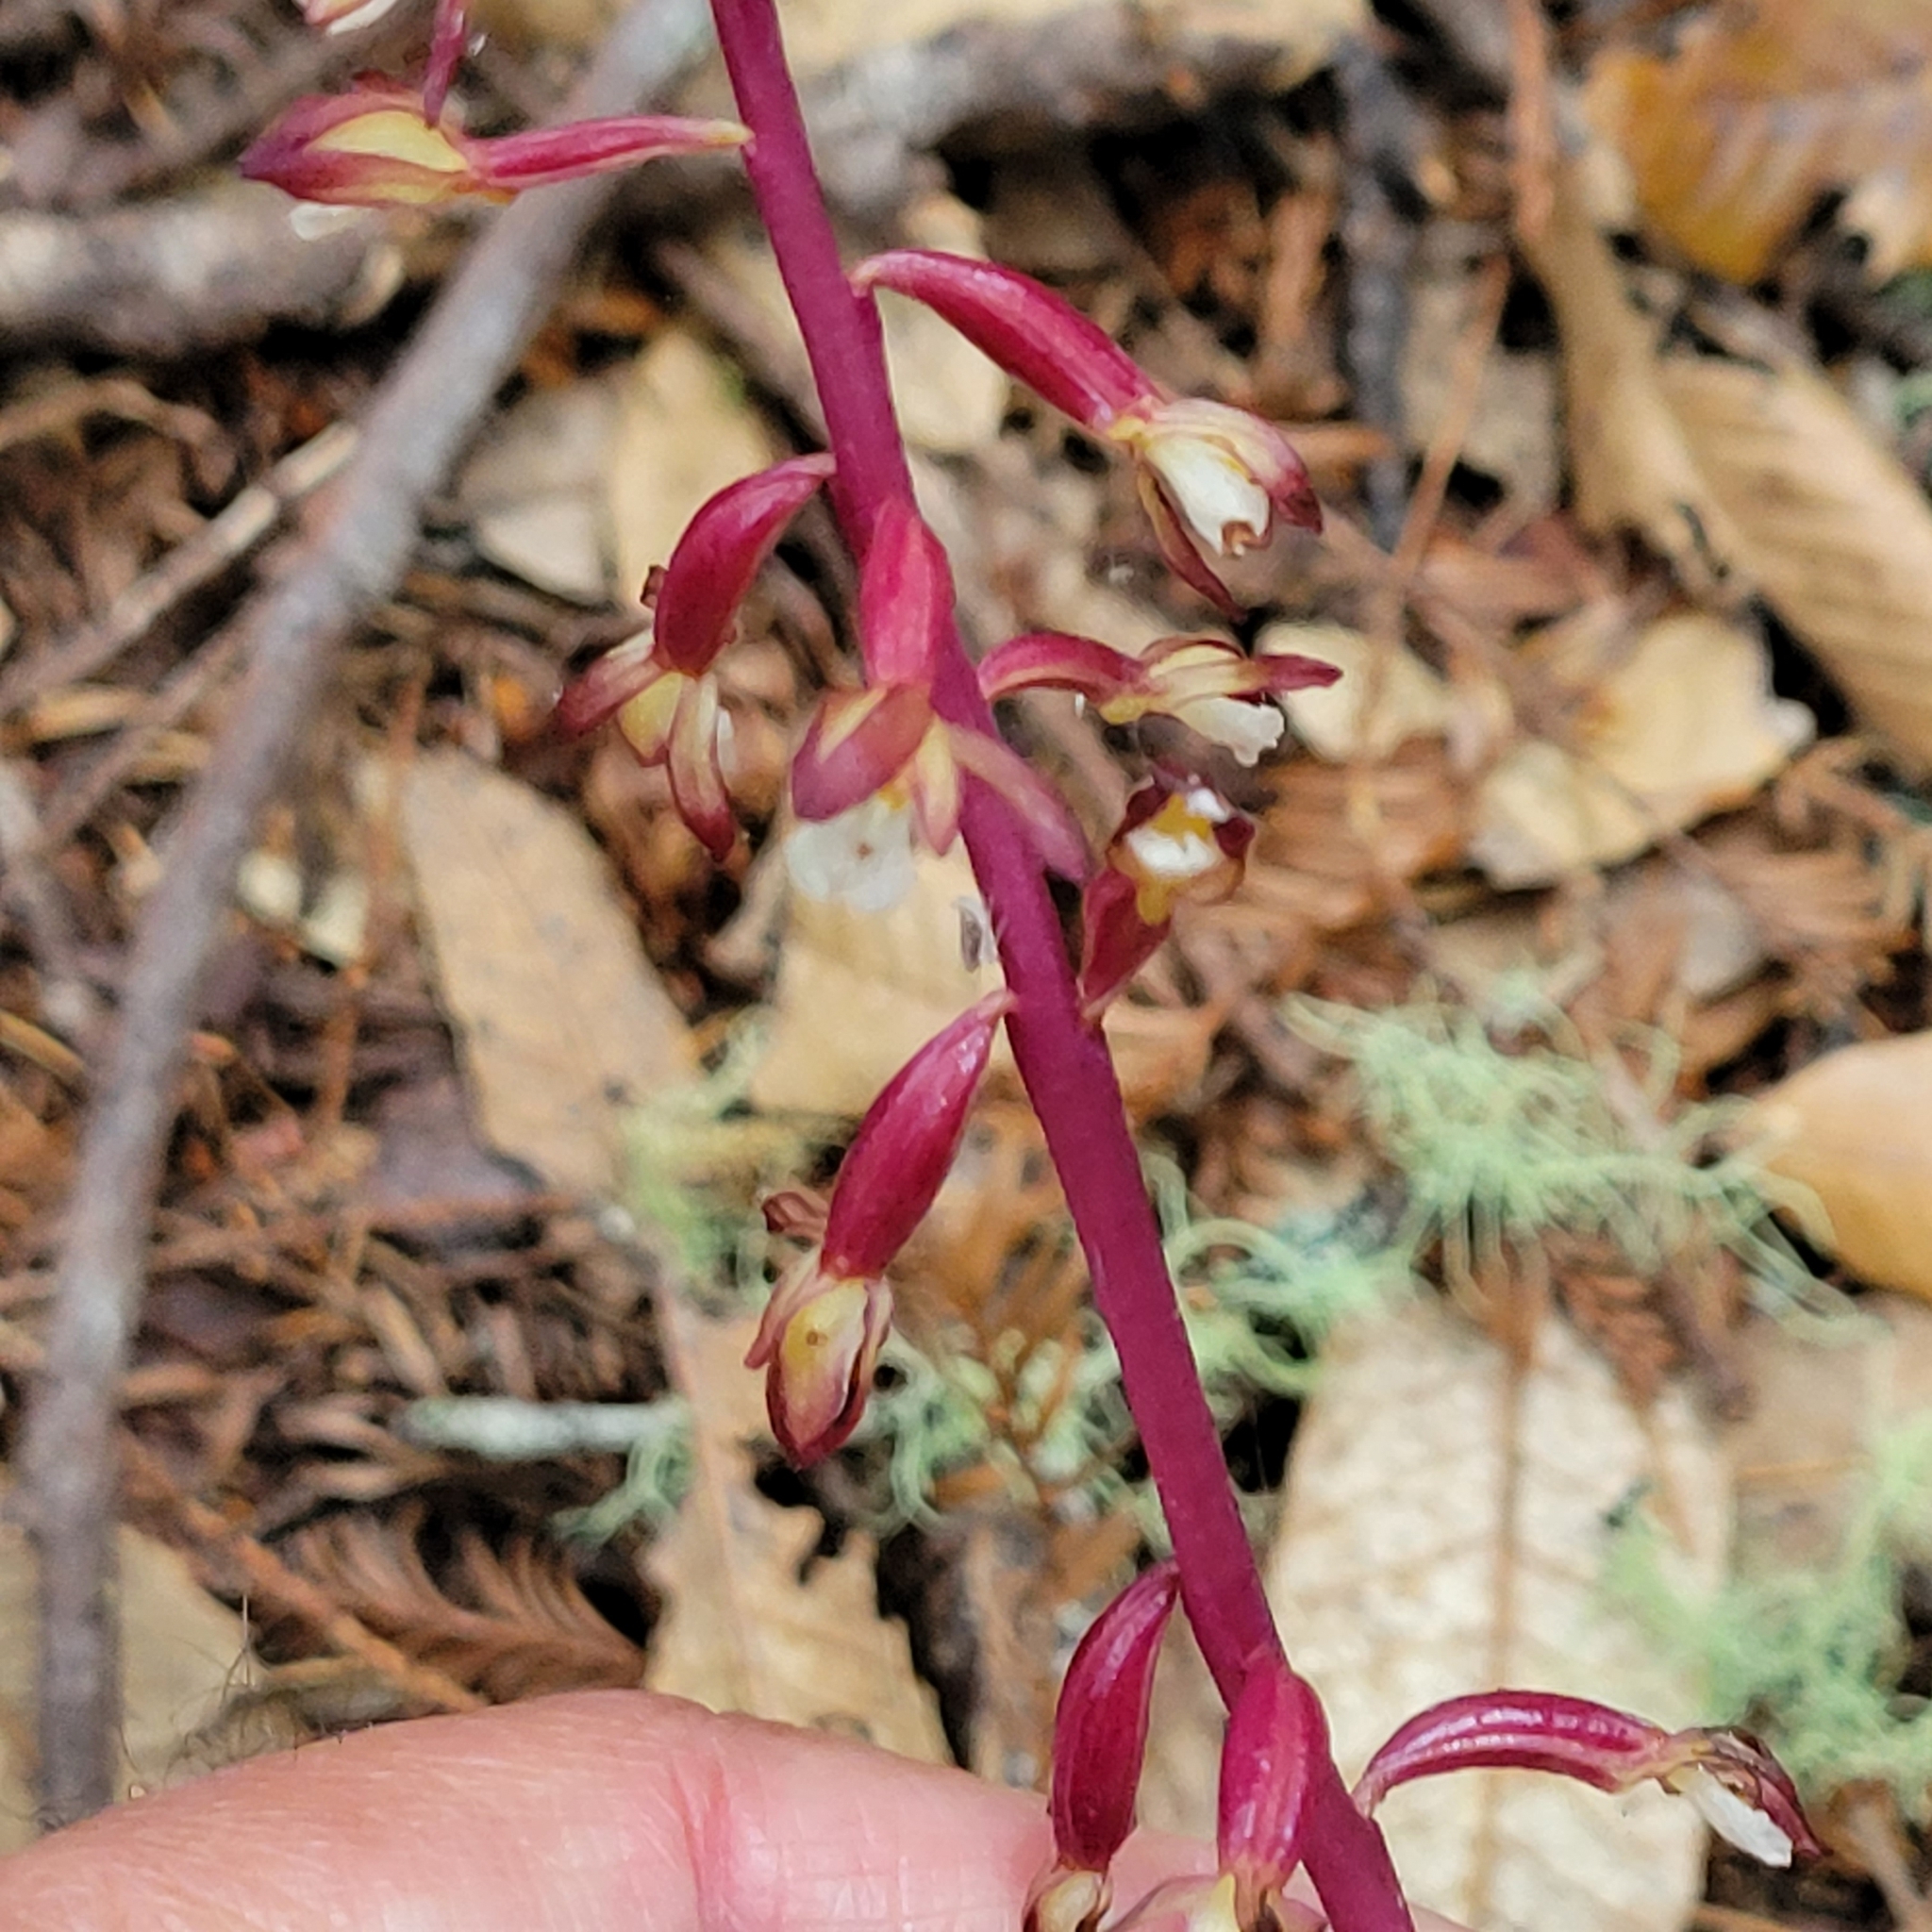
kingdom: Plantae
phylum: Tracheophyta
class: Liliopsida
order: Asparagales
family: Orchidaceae
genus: Corallorhiza
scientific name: Corallorhiza maculata
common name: Spotted coralroot
